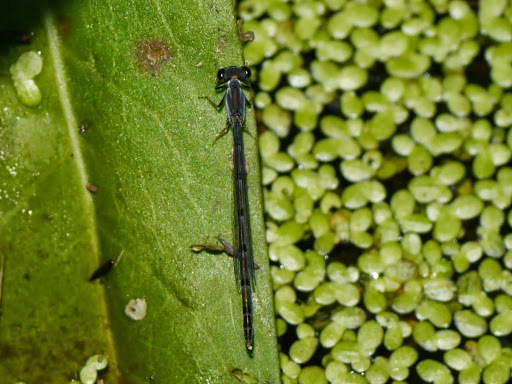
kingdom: Animalia
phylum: Arthropoda
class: Insecta
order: Odonata
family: Coenagrionidae
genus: Ischnura
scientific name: Ischnura posita
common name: Fragile forktail
